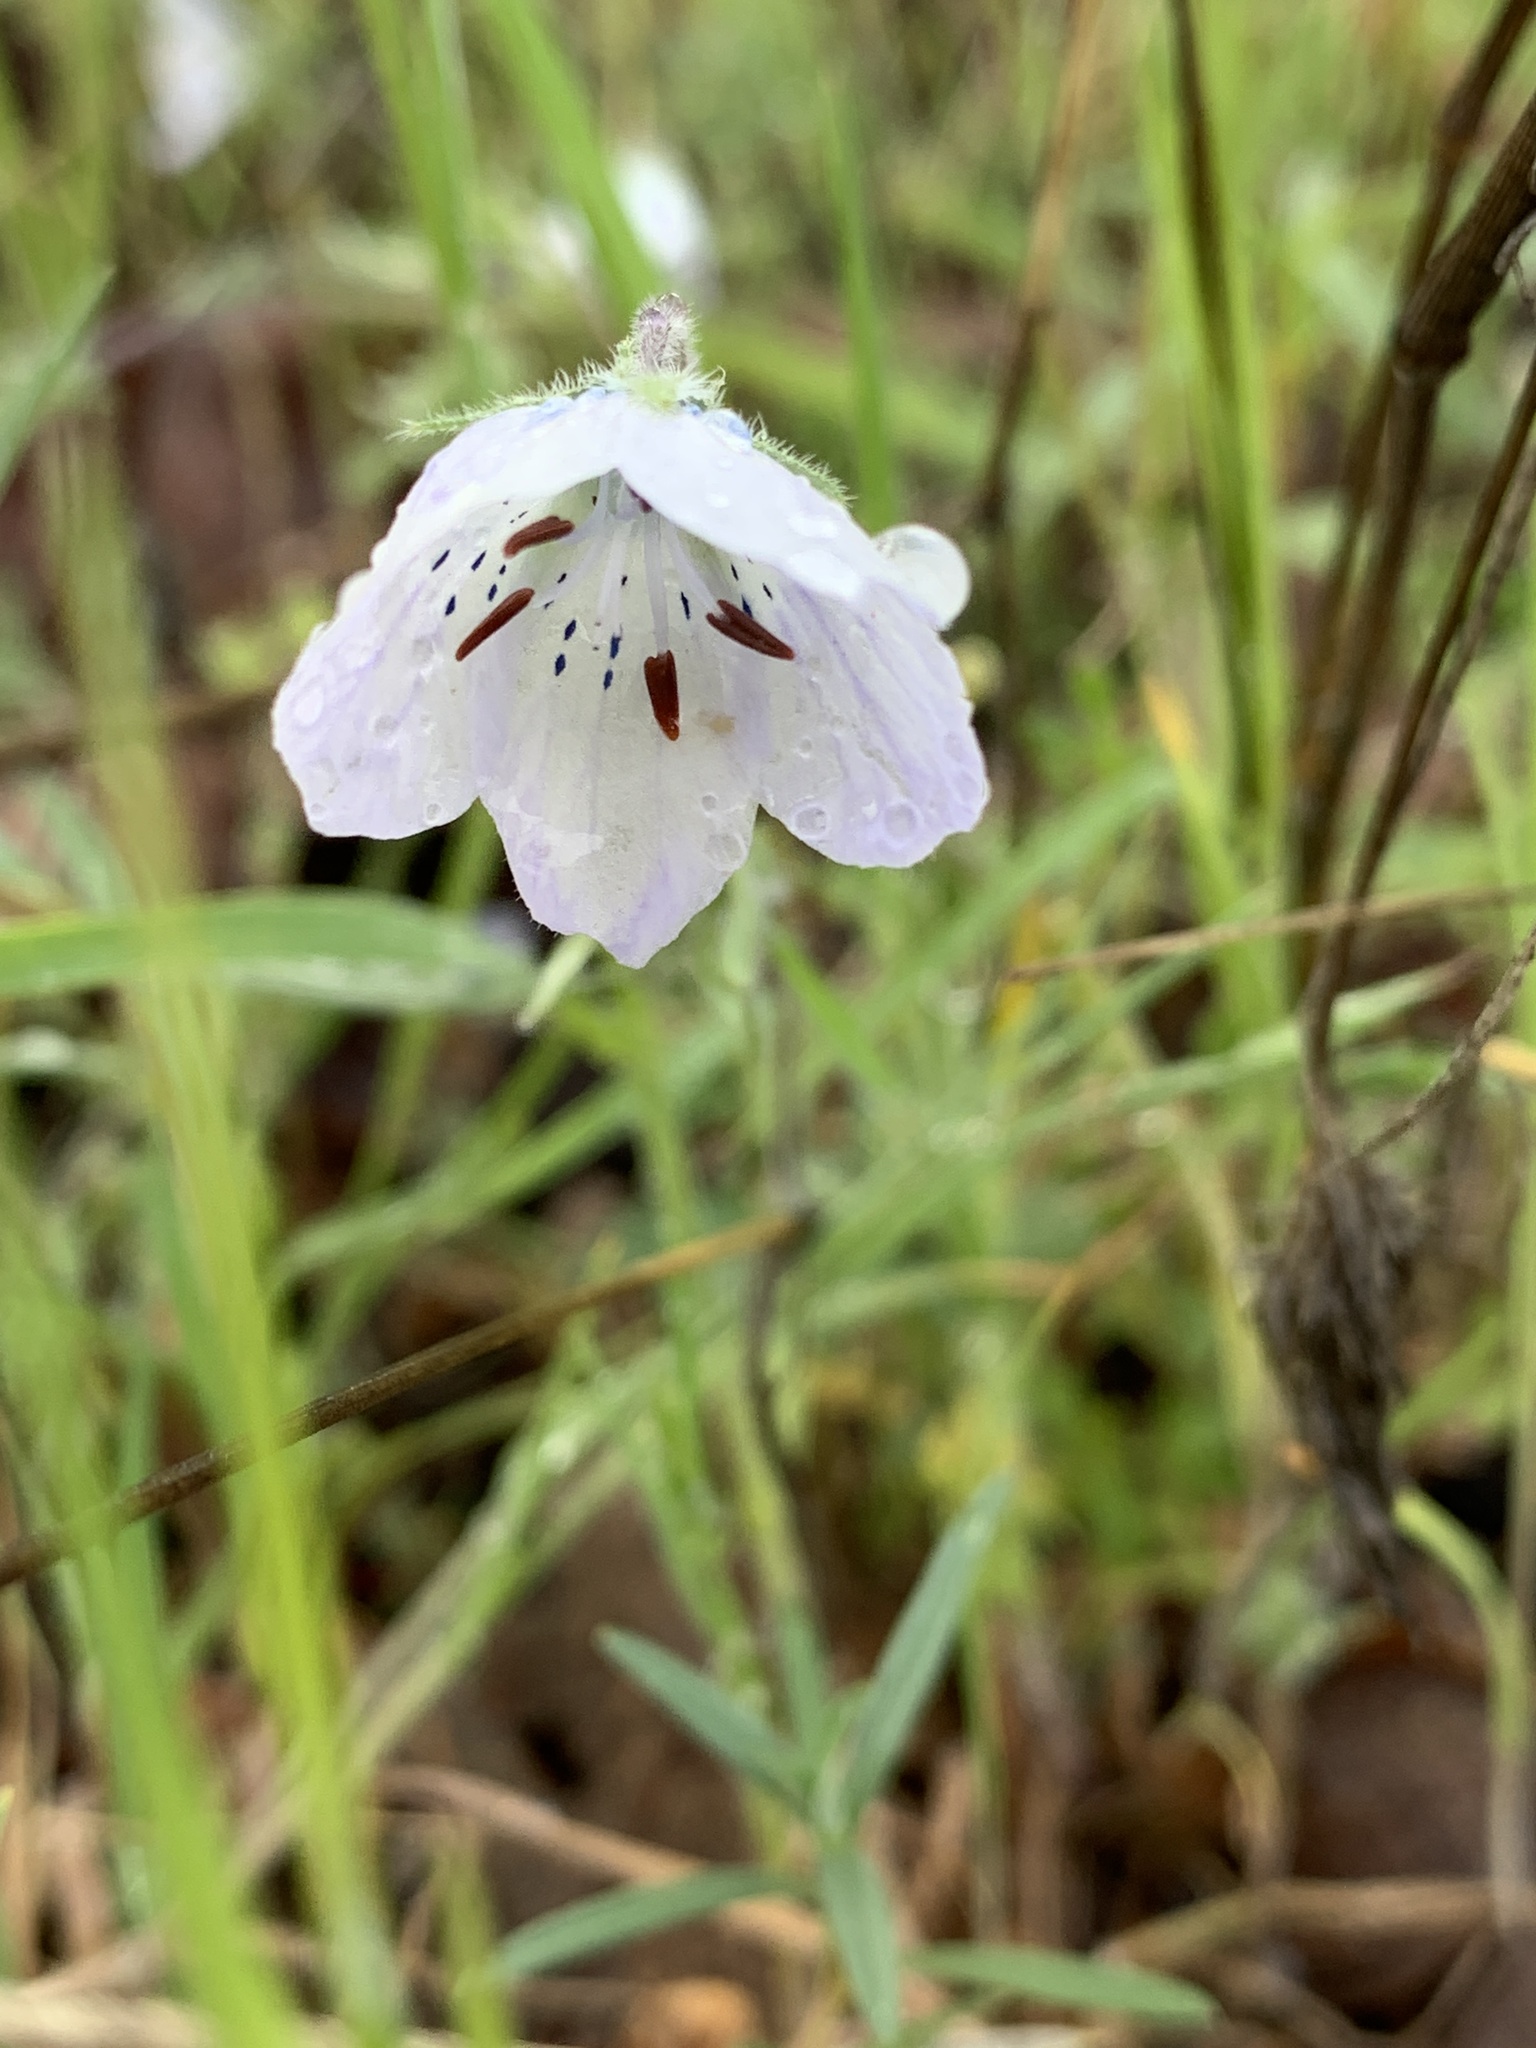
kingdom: Plantae
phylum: Tracheophyta
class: Magnoliopsida
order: Boraginales
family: Hydrophyllaceae
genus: Nemophila
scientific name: Nemophila menziesii
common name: Baby's-blue-eyes
